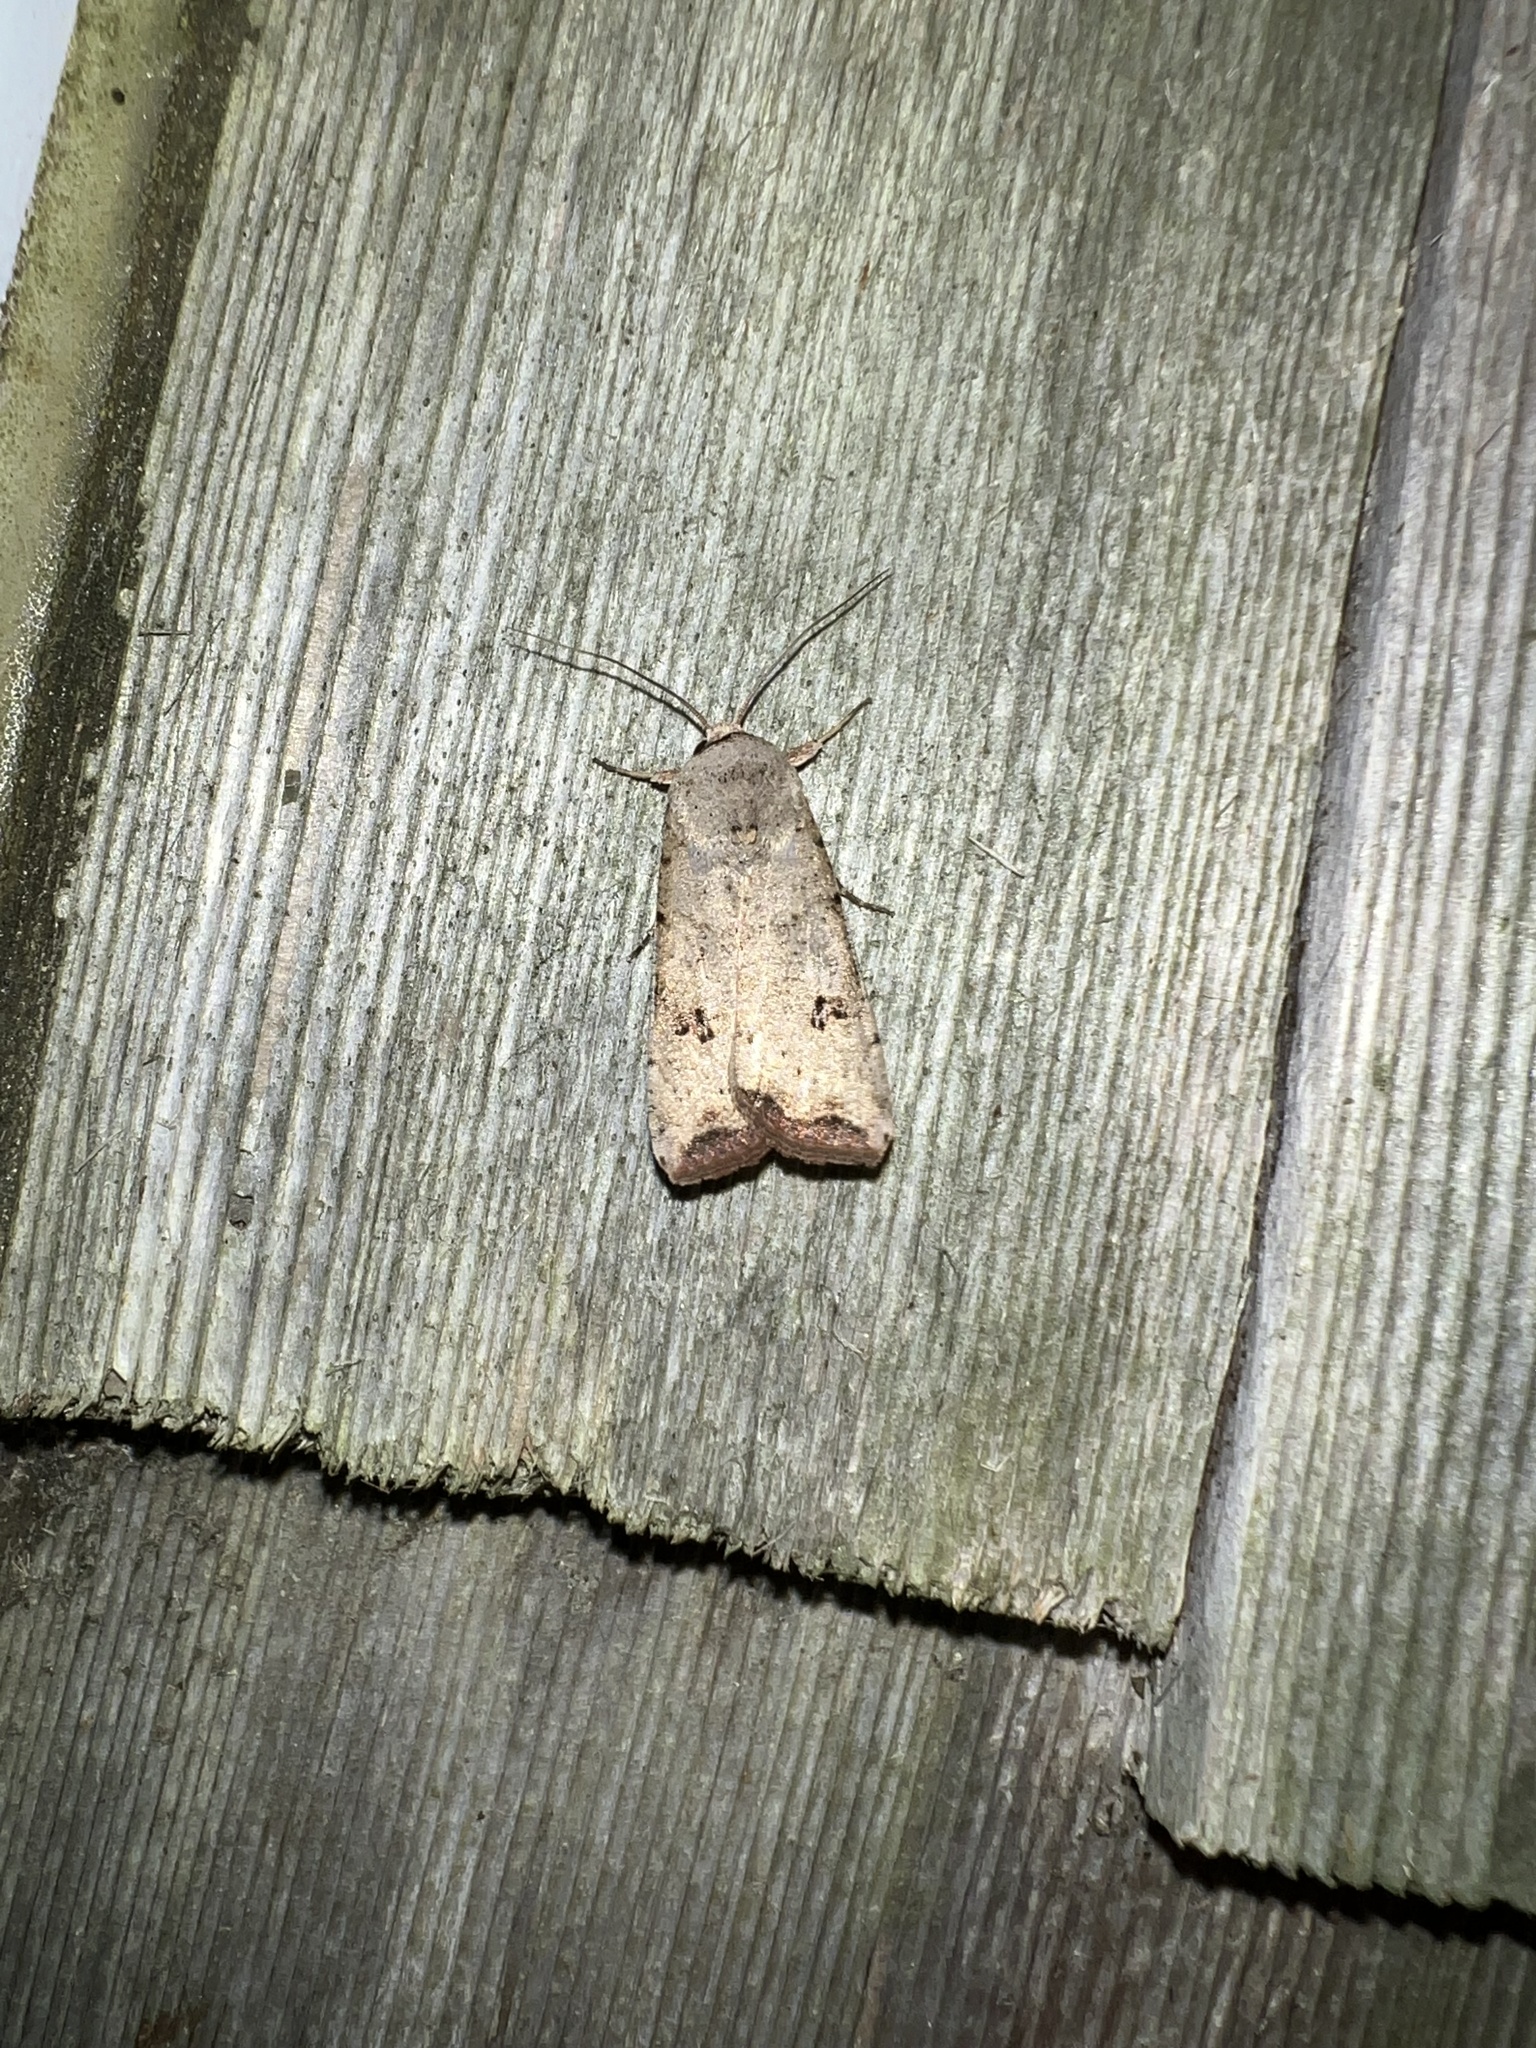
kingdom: Animalia
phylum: Arthropoda
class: Insecta
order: Lepidoptera
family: Noctuidae
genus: Anicla
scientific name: Anicla infecta
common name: Green cutworm
